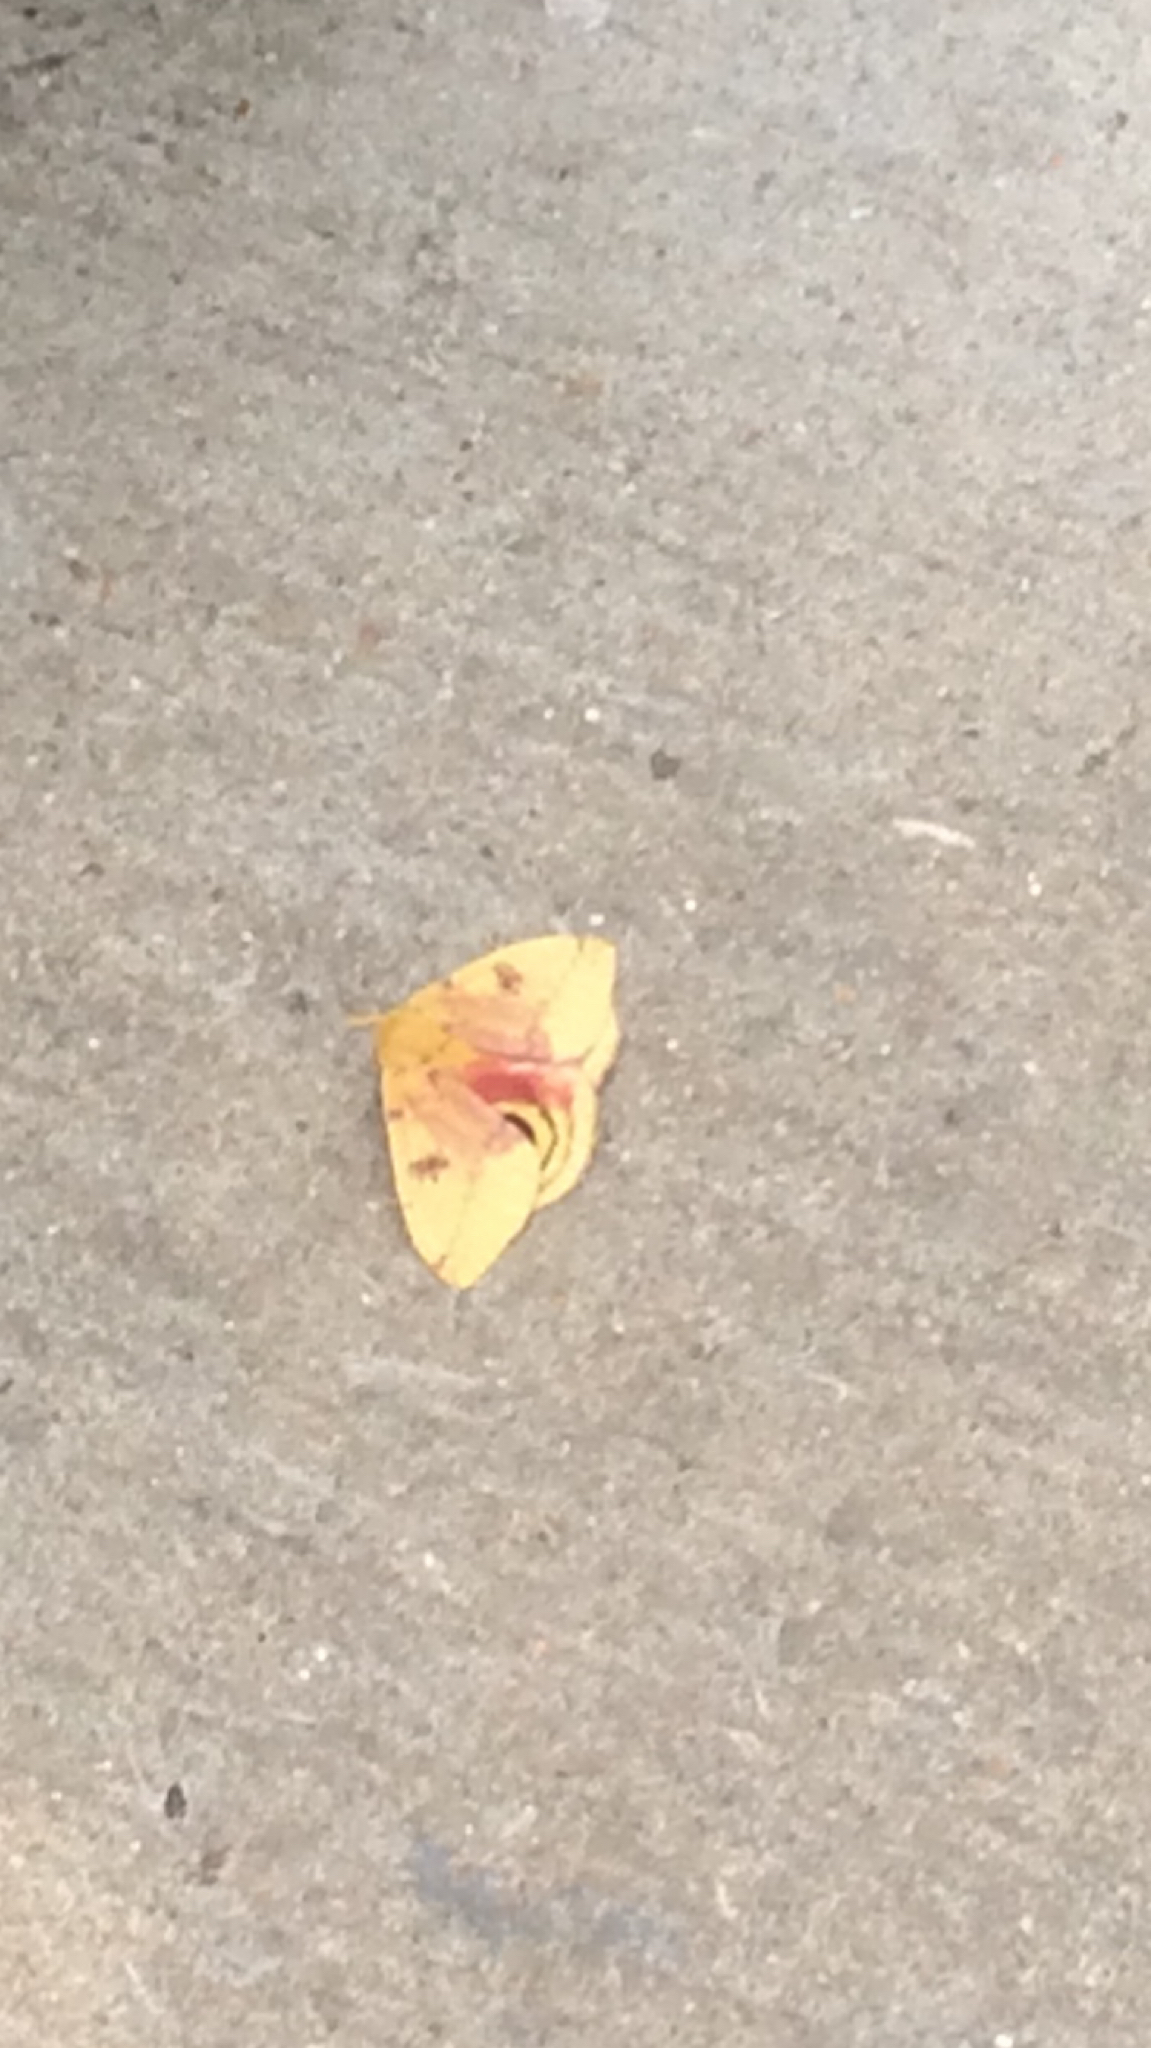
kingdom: Animalia
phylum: Arthropoda
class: Insecta
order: Lepidoptera
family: Saturniidae
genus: Automeris
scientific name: Automeris io
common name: Io moth
